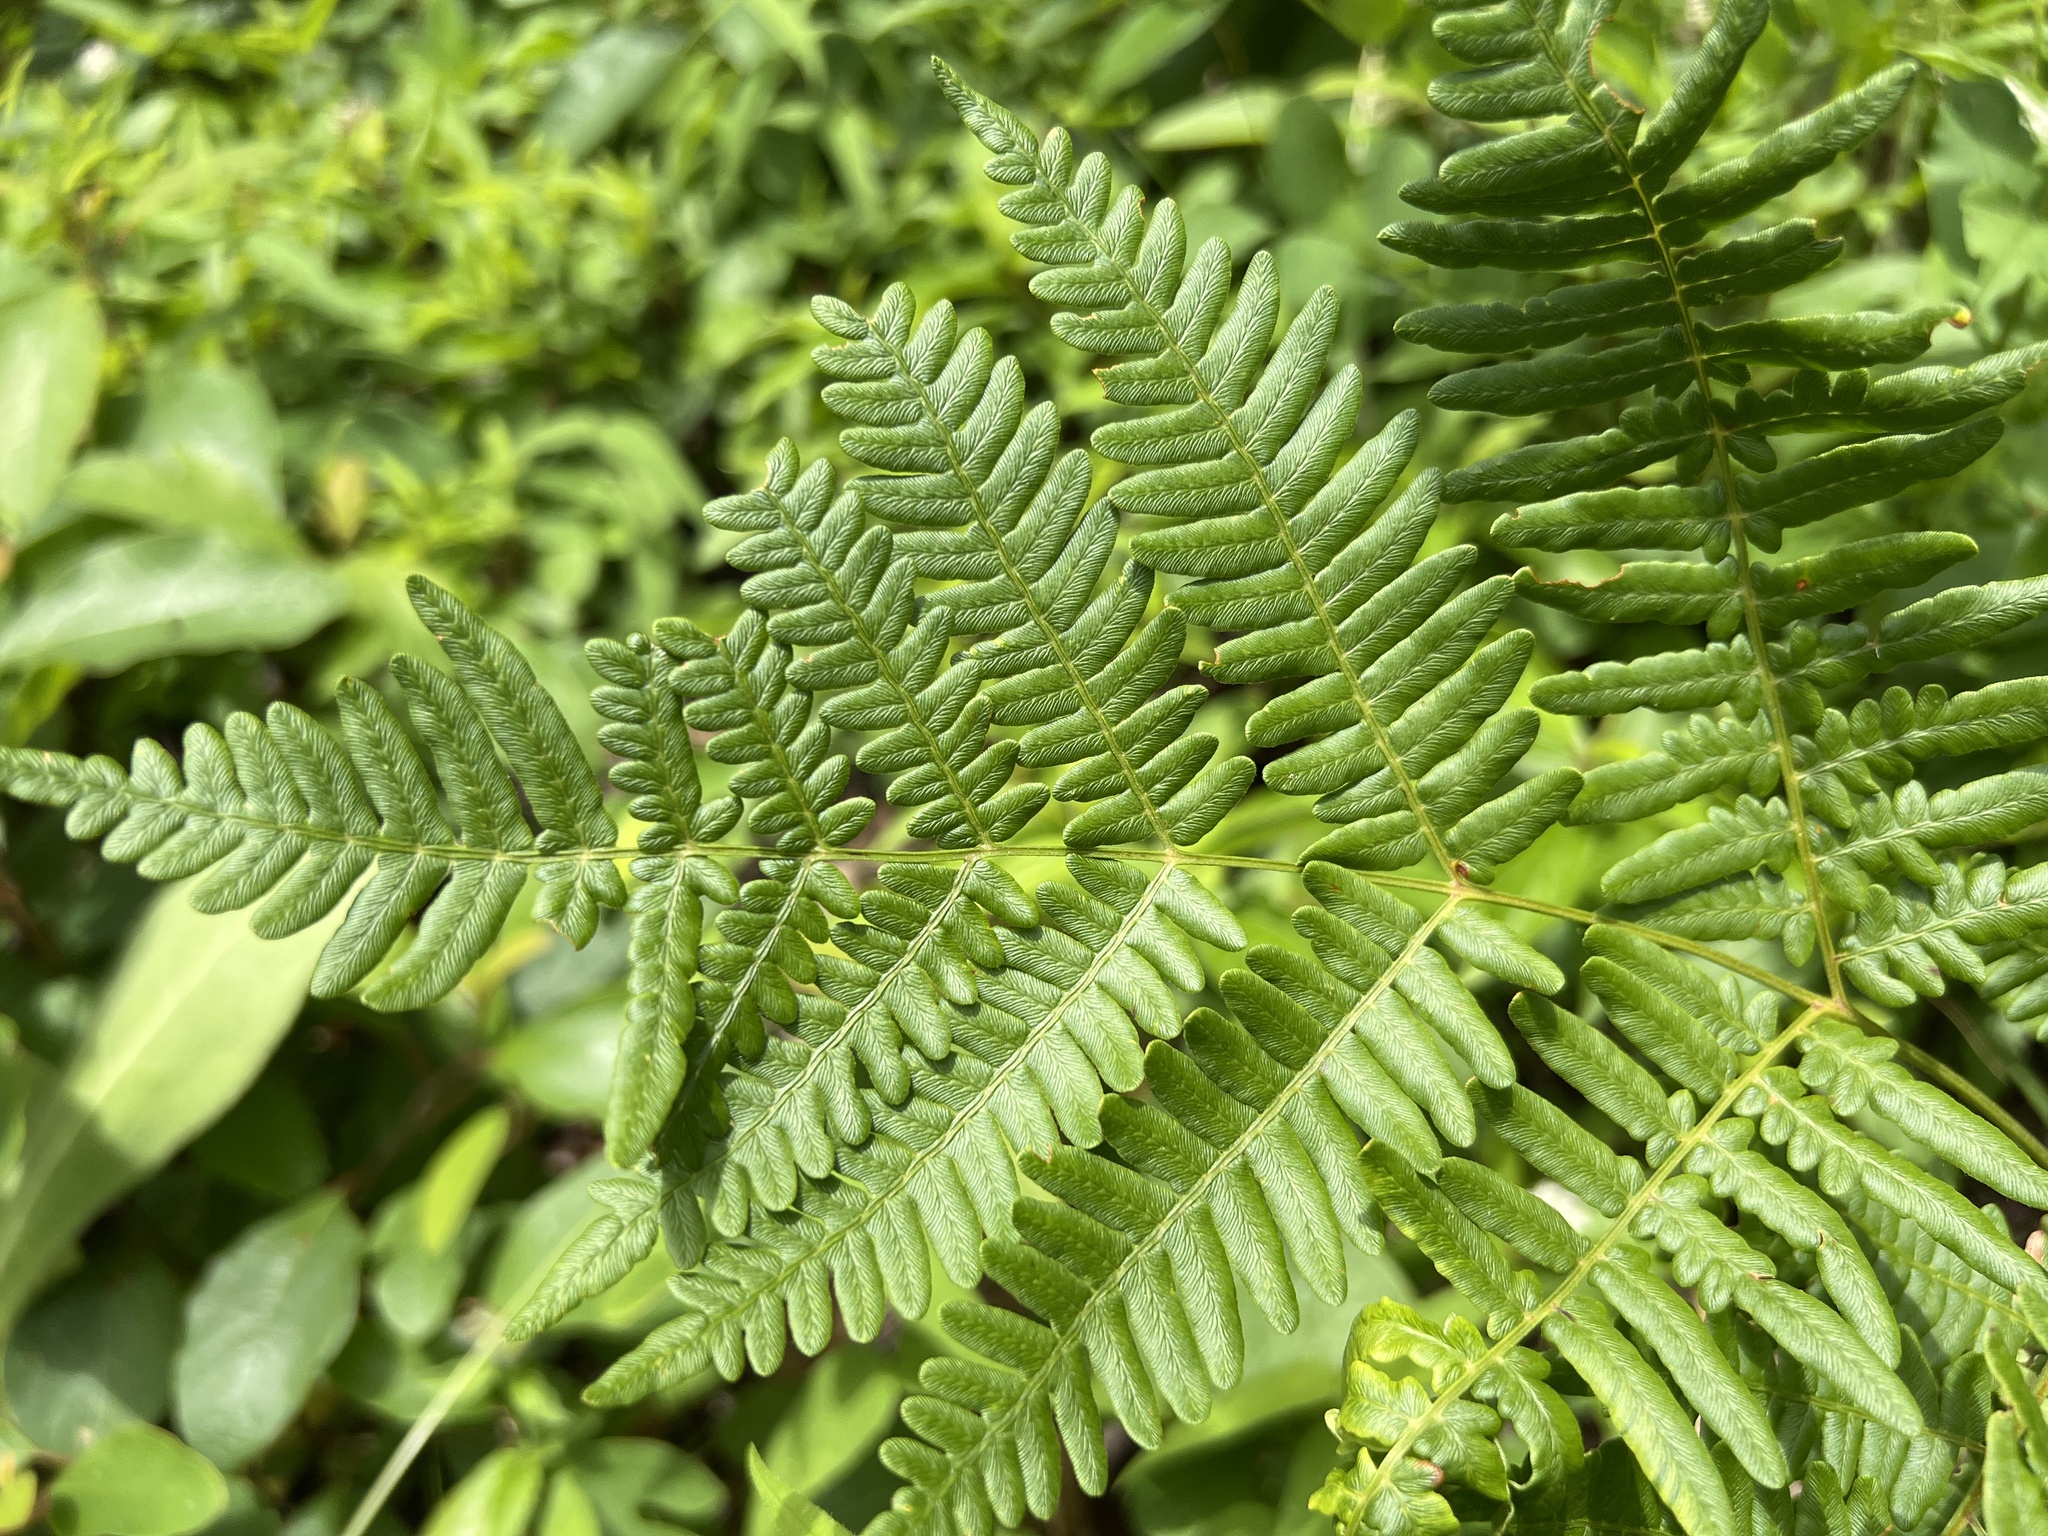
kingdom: Plantae
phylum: Tracheophyta
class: Polypodiopsida
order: Polypodiales
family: Dennstaedtiaceae
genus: Pteridium
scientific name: Pteridium aquilinum
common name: Bracken
